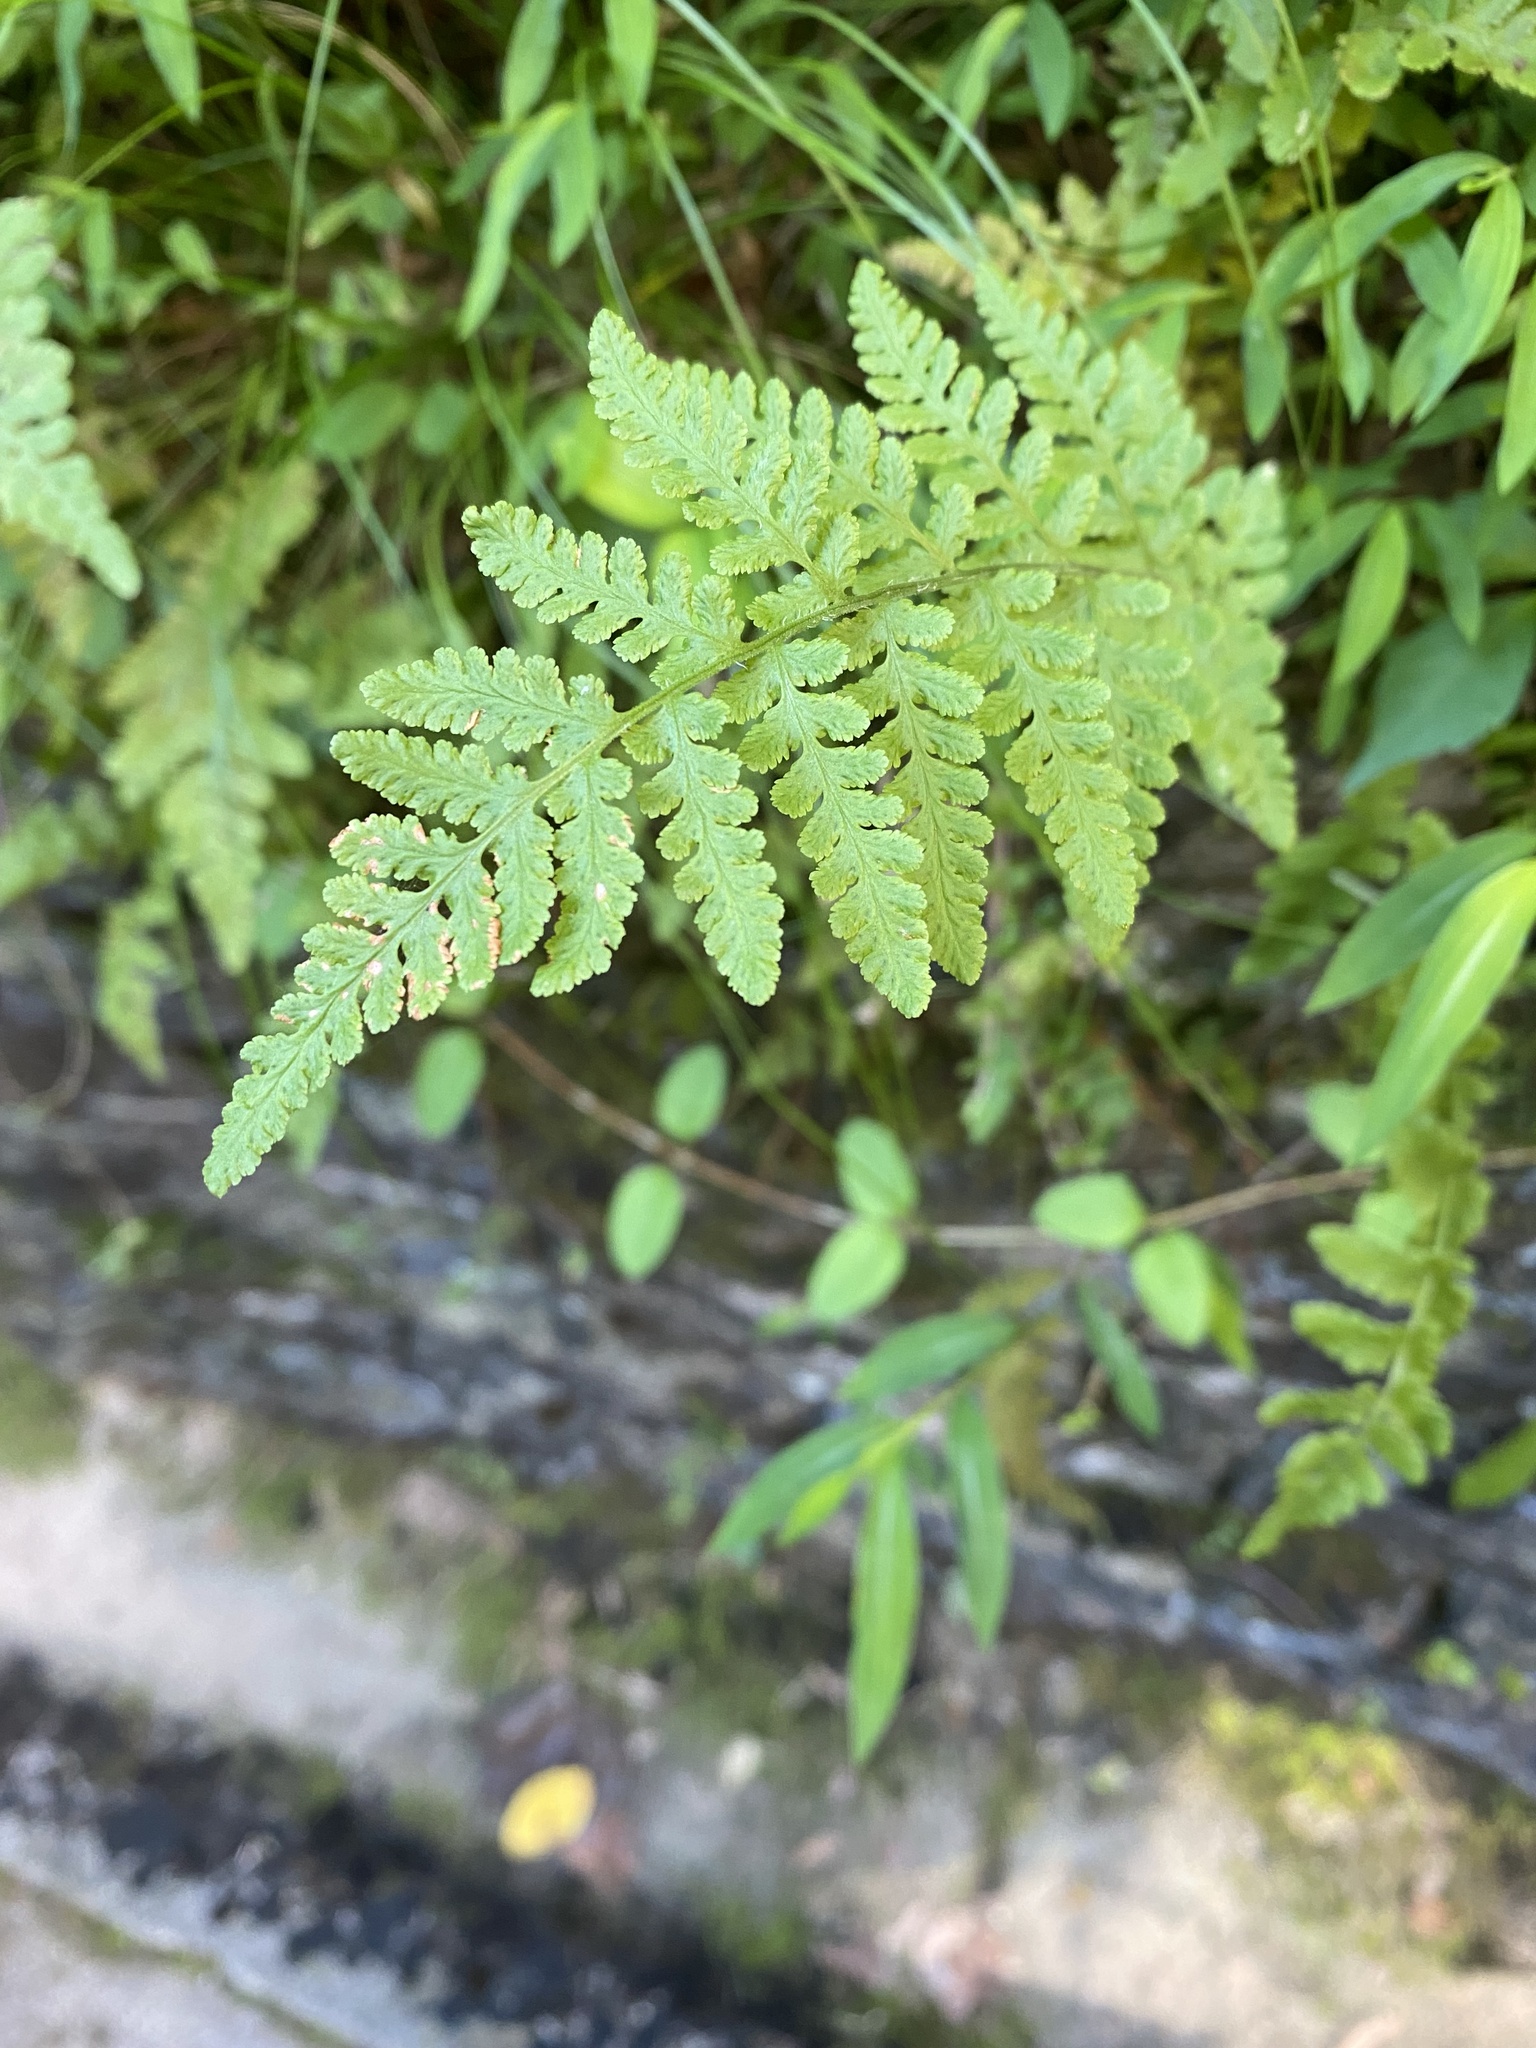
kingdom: Plantae
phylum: Tracheophyta
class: Polypodiopsida
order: Polypodiales
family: Woodsiaceae
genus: Physematium
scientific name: Physematium obtusum
